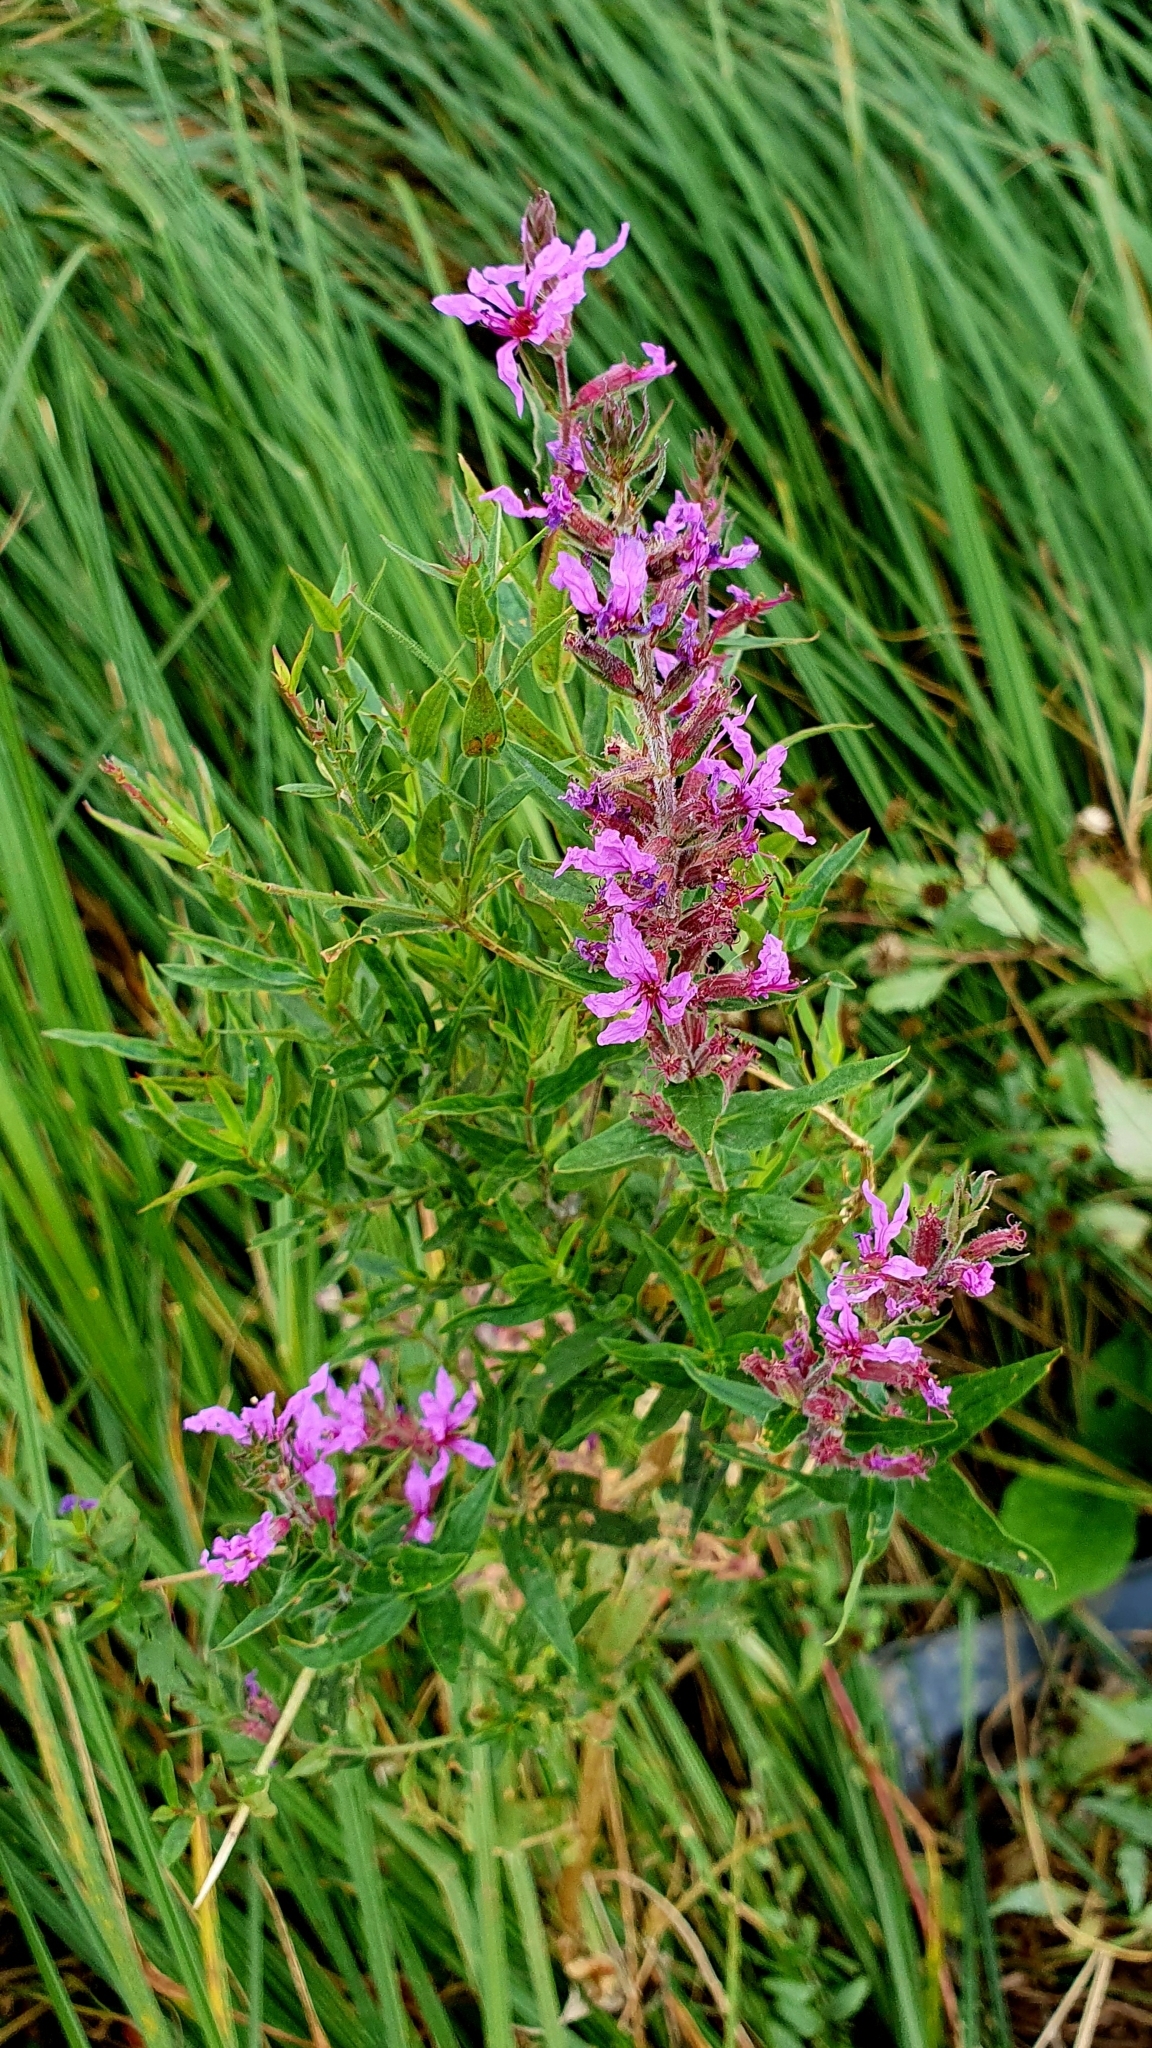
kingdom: Plantae
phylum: Tracheophyta
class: Magnoliopsida
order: Myrtales
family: Lythraceae
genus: Lythrum
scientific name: Lythrum salicaria
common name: Purple loosestrife
